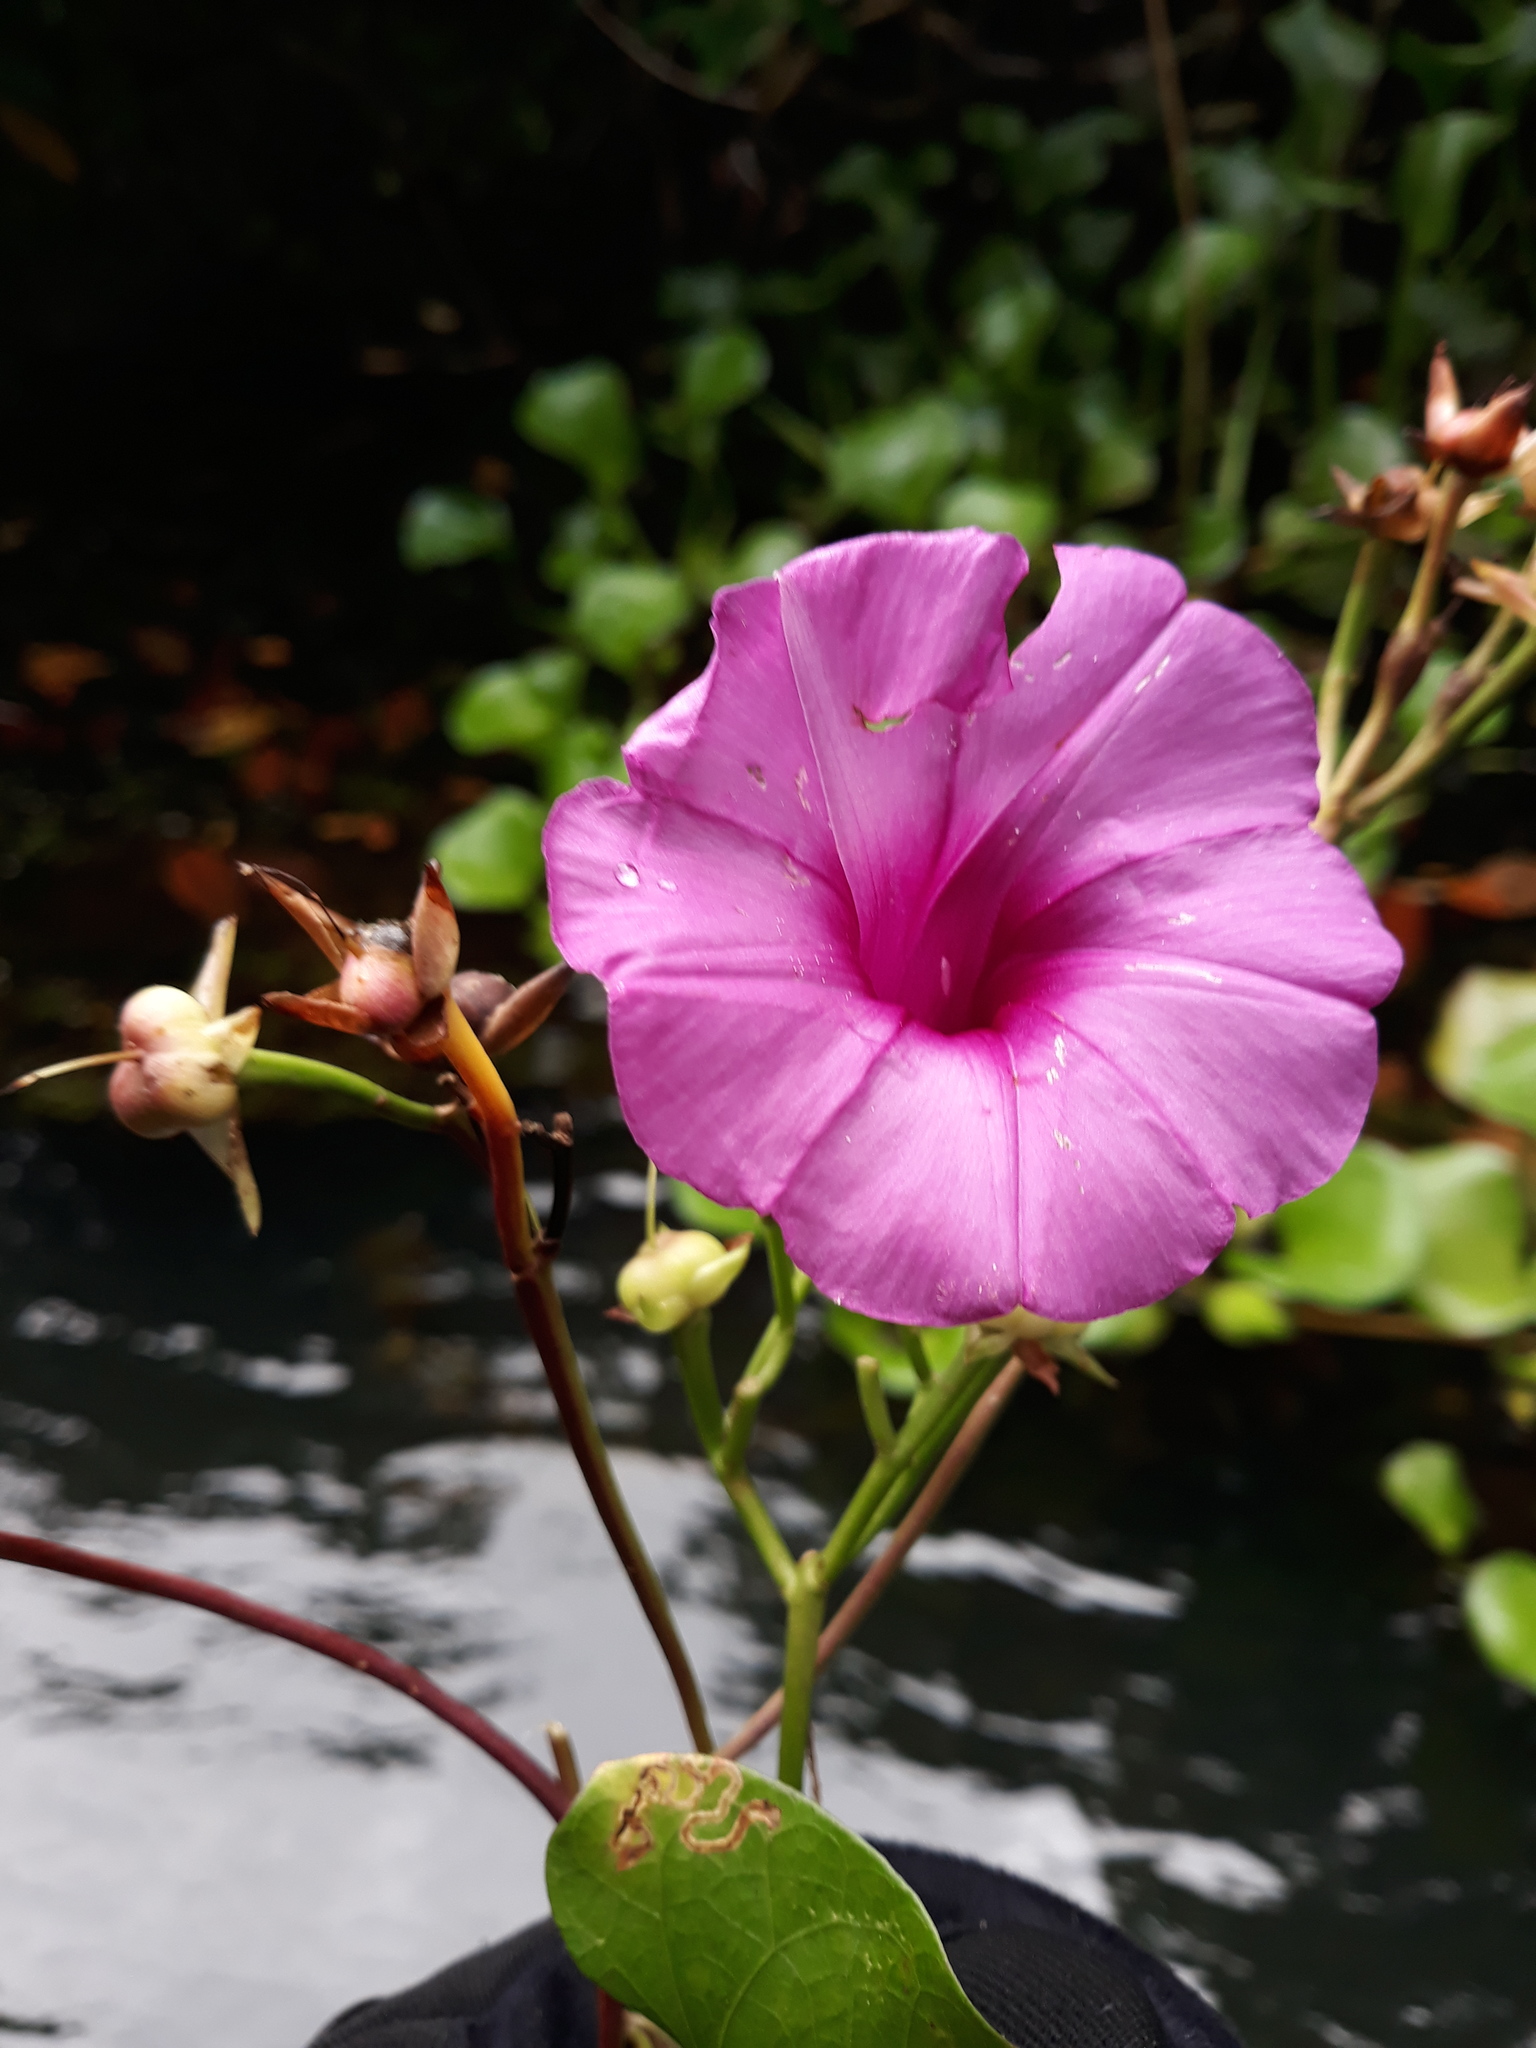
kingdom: Plantae
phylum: Tracheophyta
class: Magnoliopsida
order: Solanales
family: Convolvulaceae
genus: Ipomoea
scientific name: Ipomoea philomega
